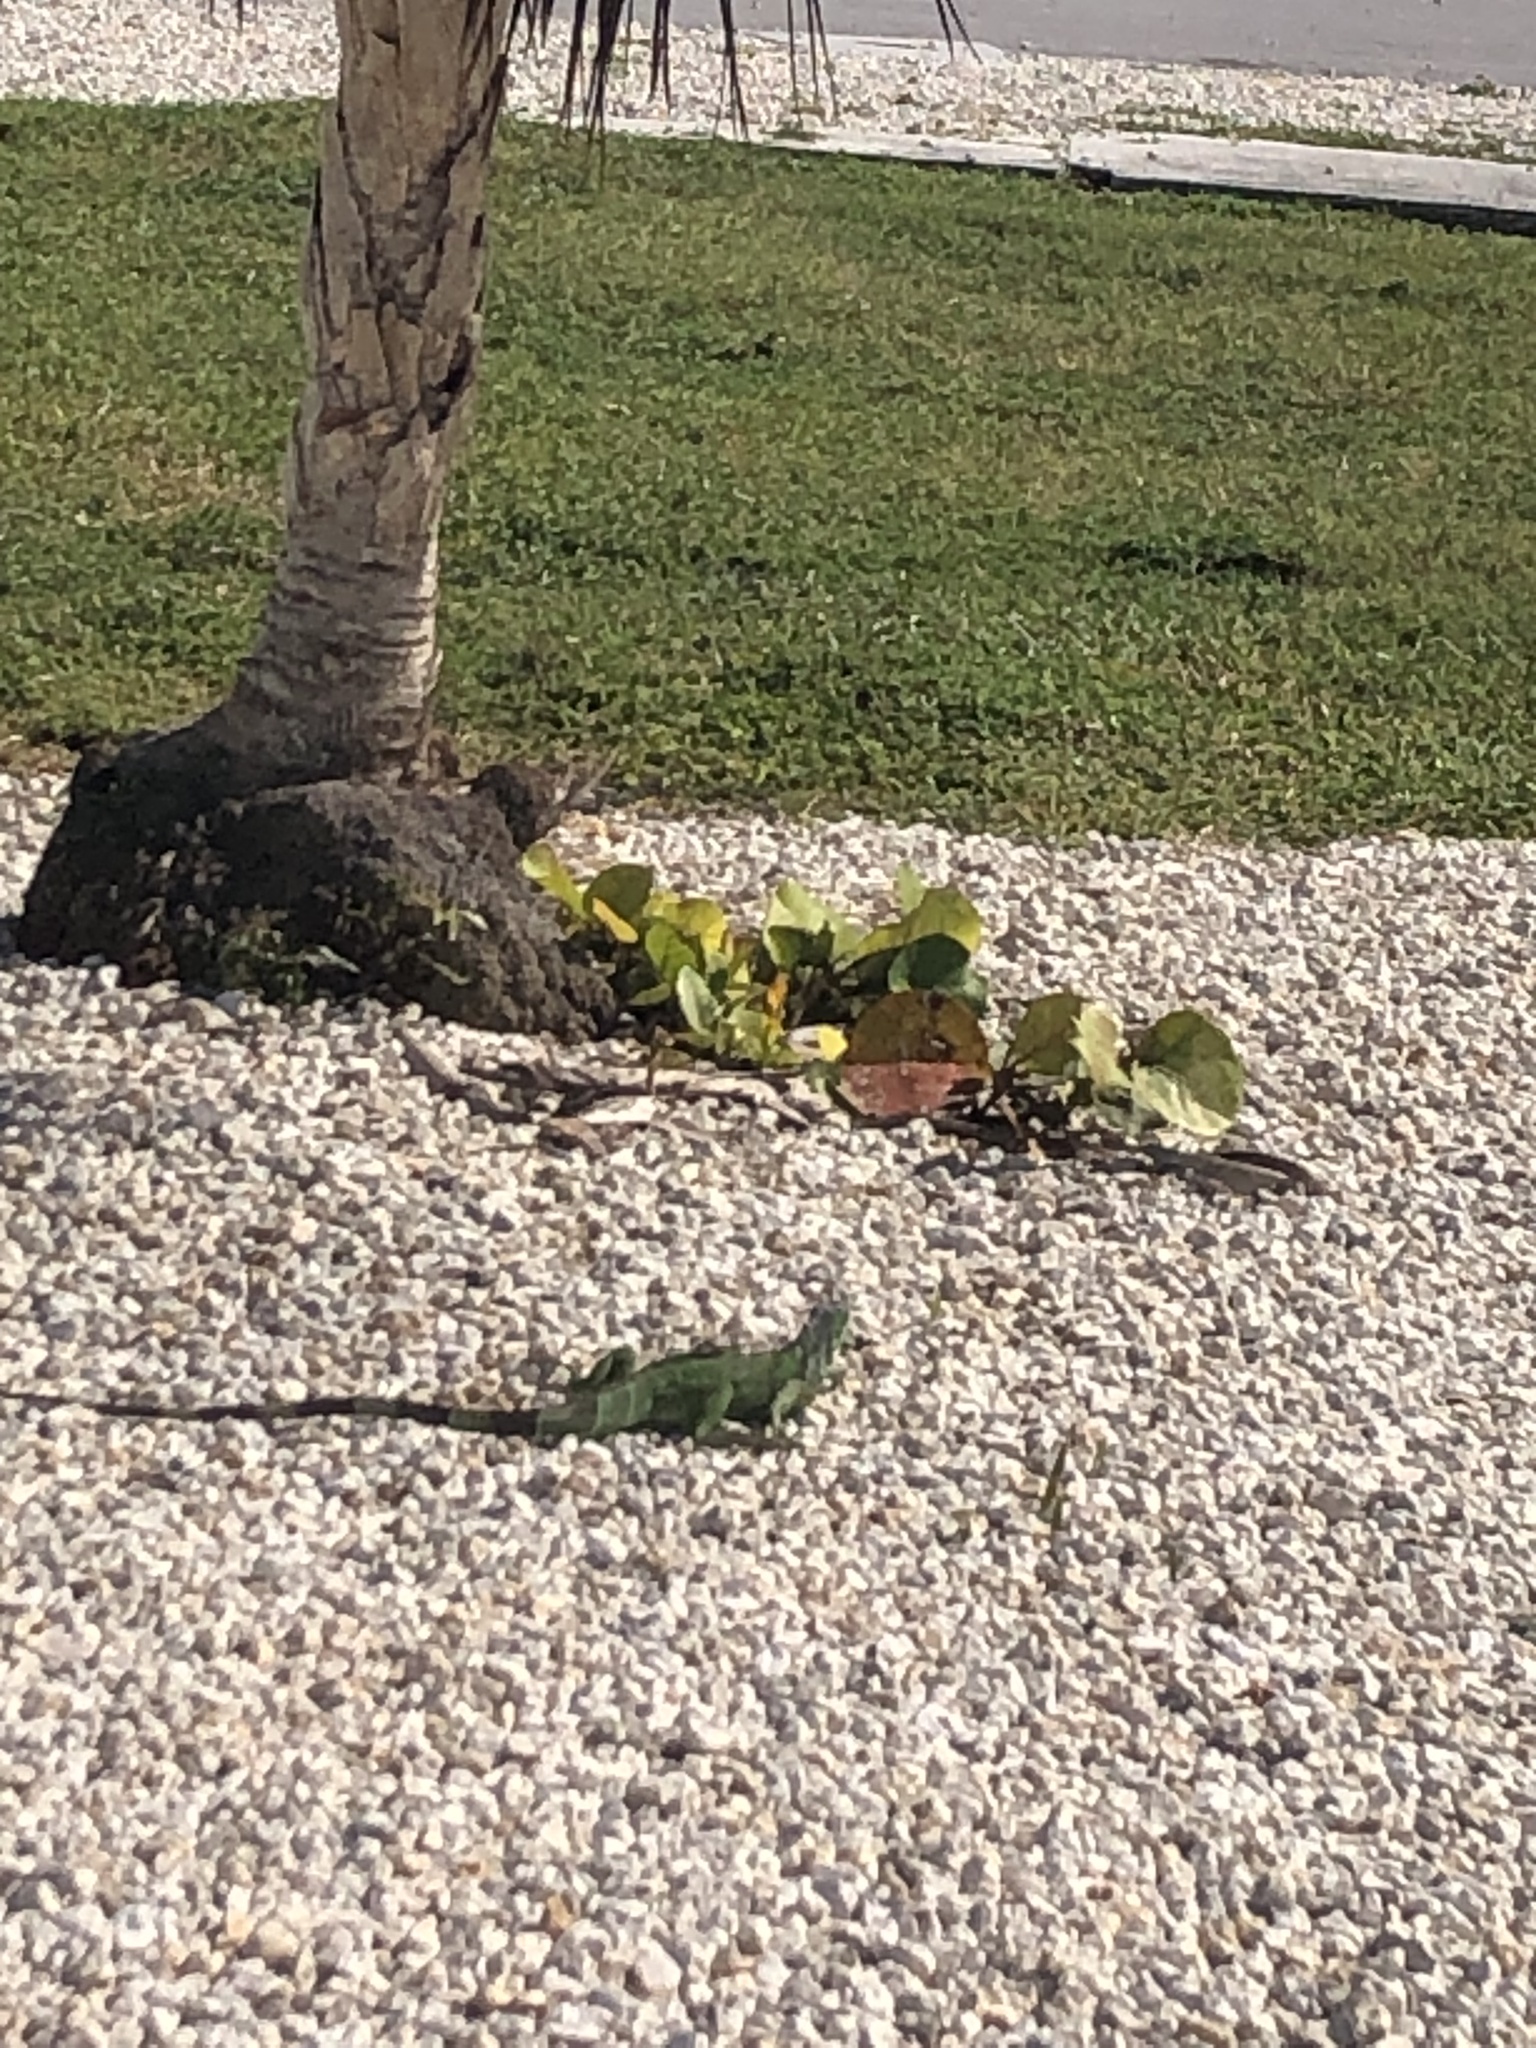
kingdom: Animalia
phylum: Chordata
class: Squamata
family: Iguanidae
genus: Iguana
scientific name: Iguana iguana
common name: Green iguana
